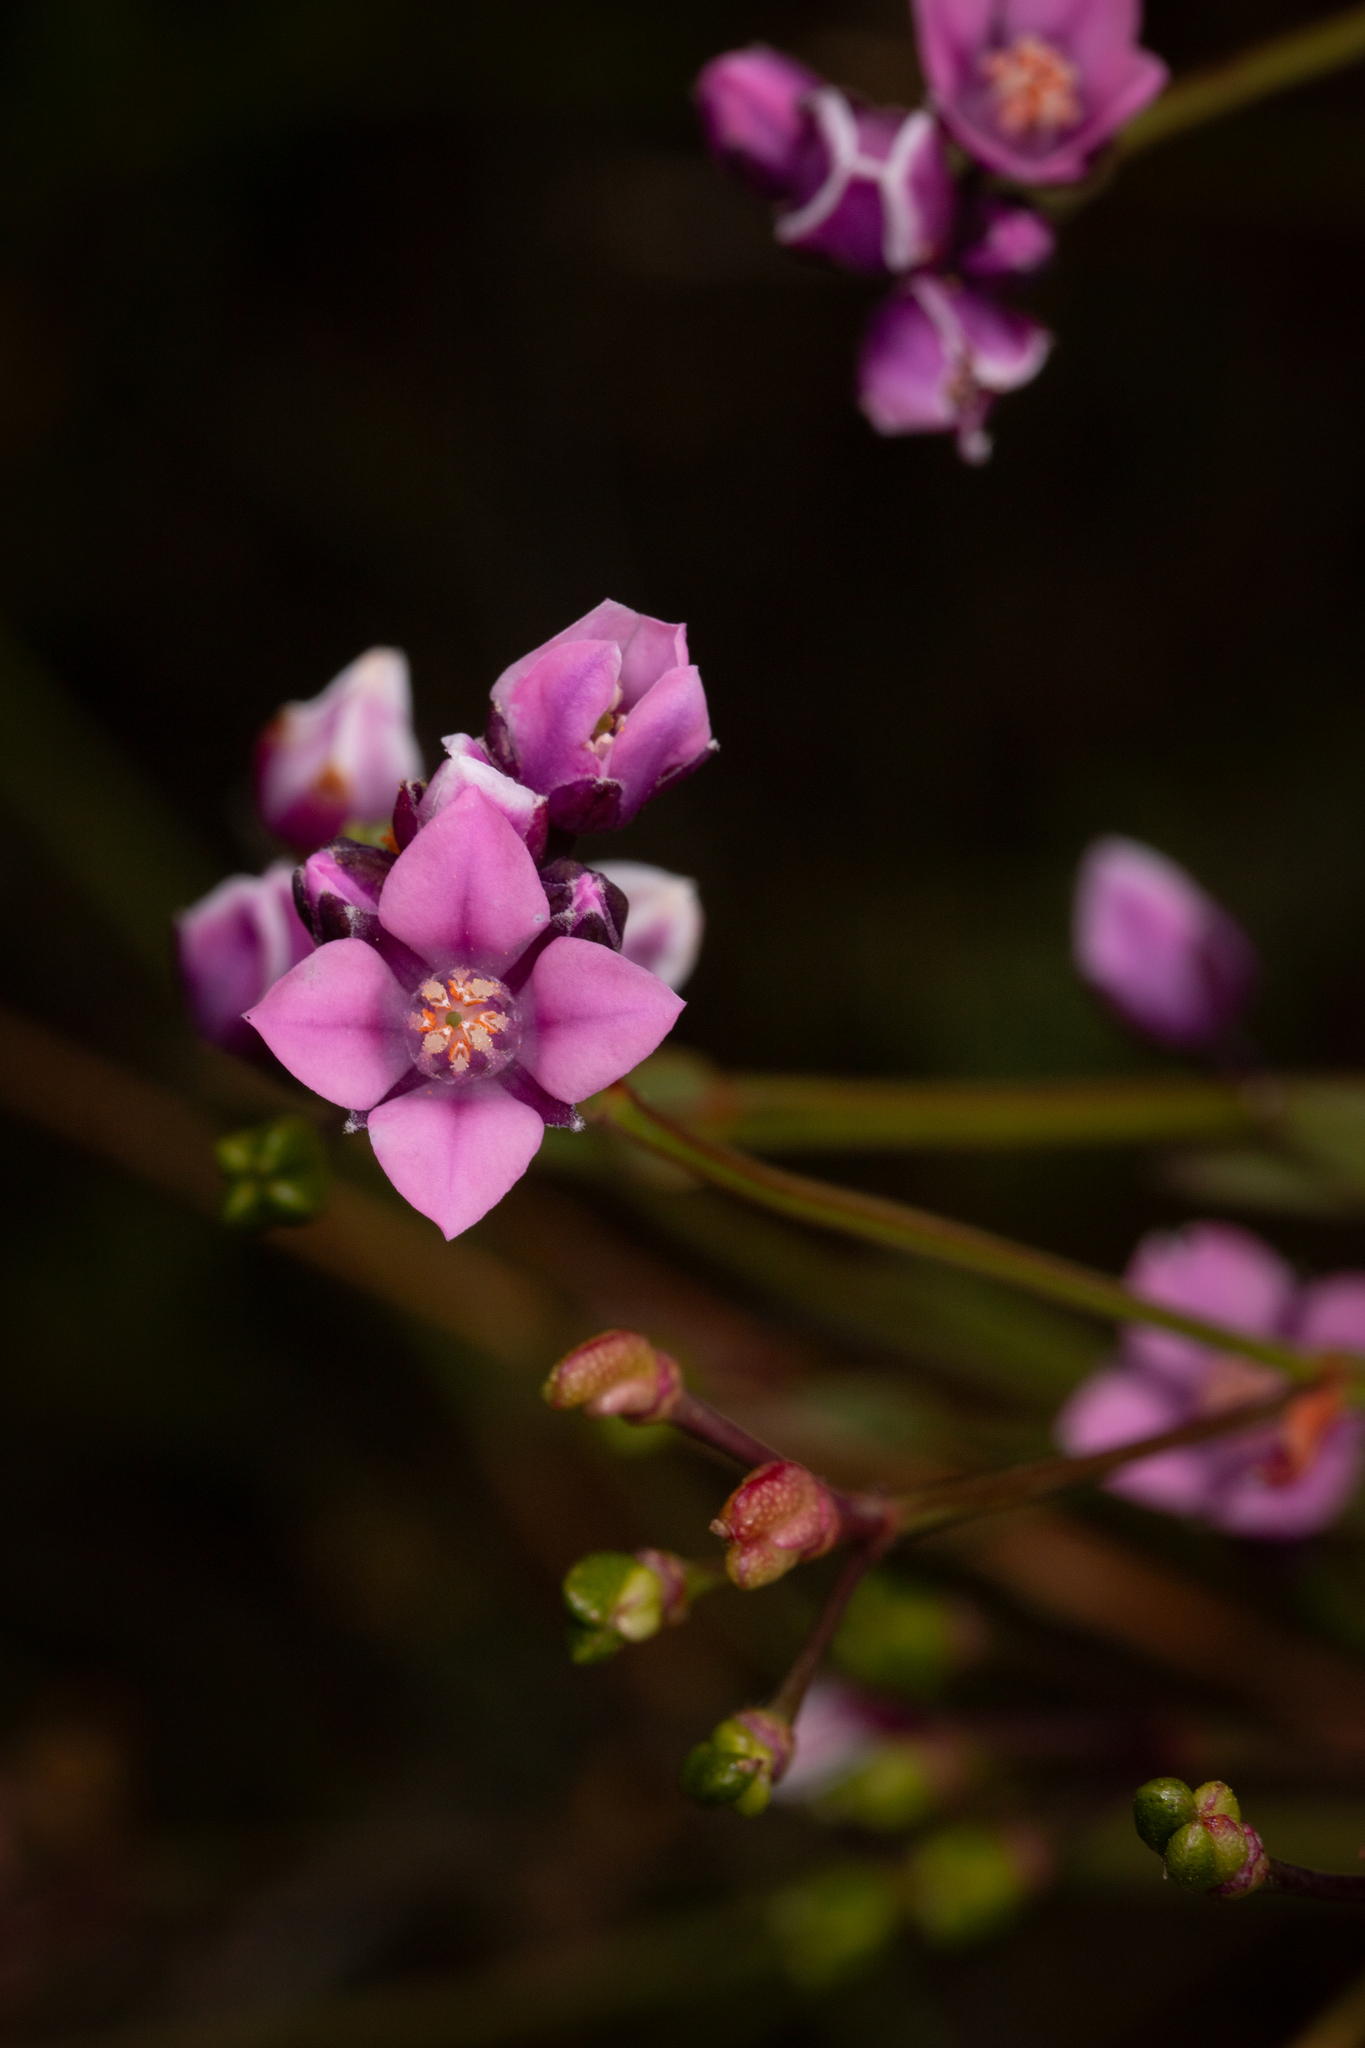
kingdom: Plantae
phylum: Tracheophyta
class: Magnoliopsida
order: Sapindales
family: Rutaceae
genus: Boronia
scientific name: Boronia tetragona
